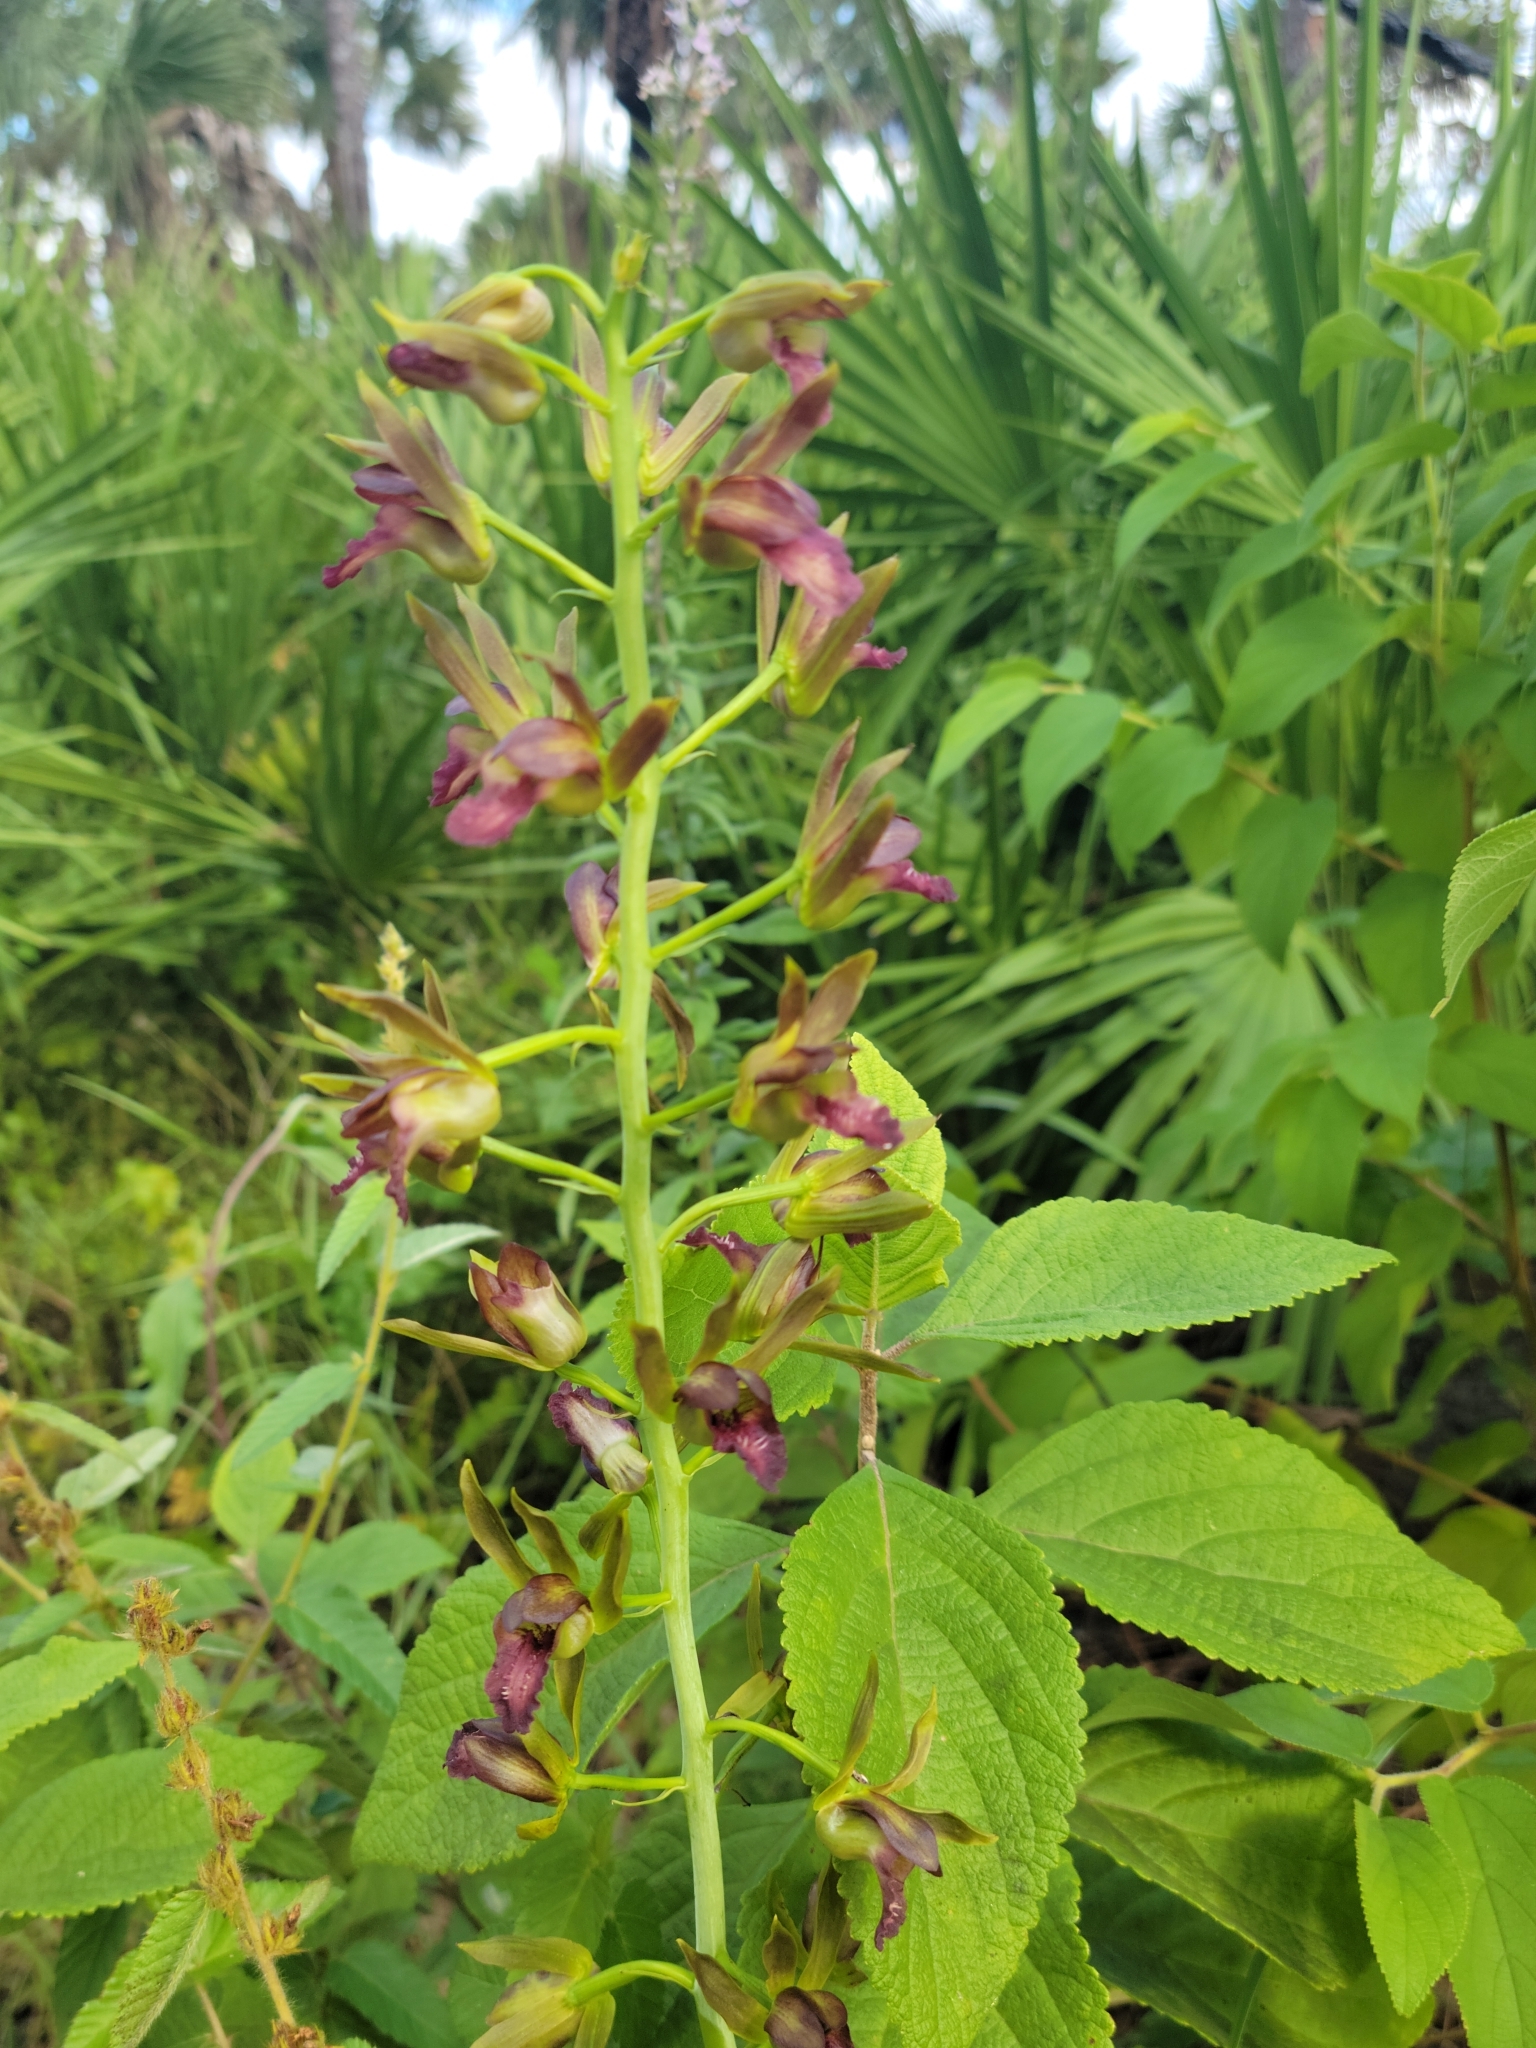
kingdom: Plantae
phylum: Tracheophyta
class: Liliopsida
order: Asparagales
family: Orchidaceae
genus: Eulophia
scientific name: Eulophia alta
